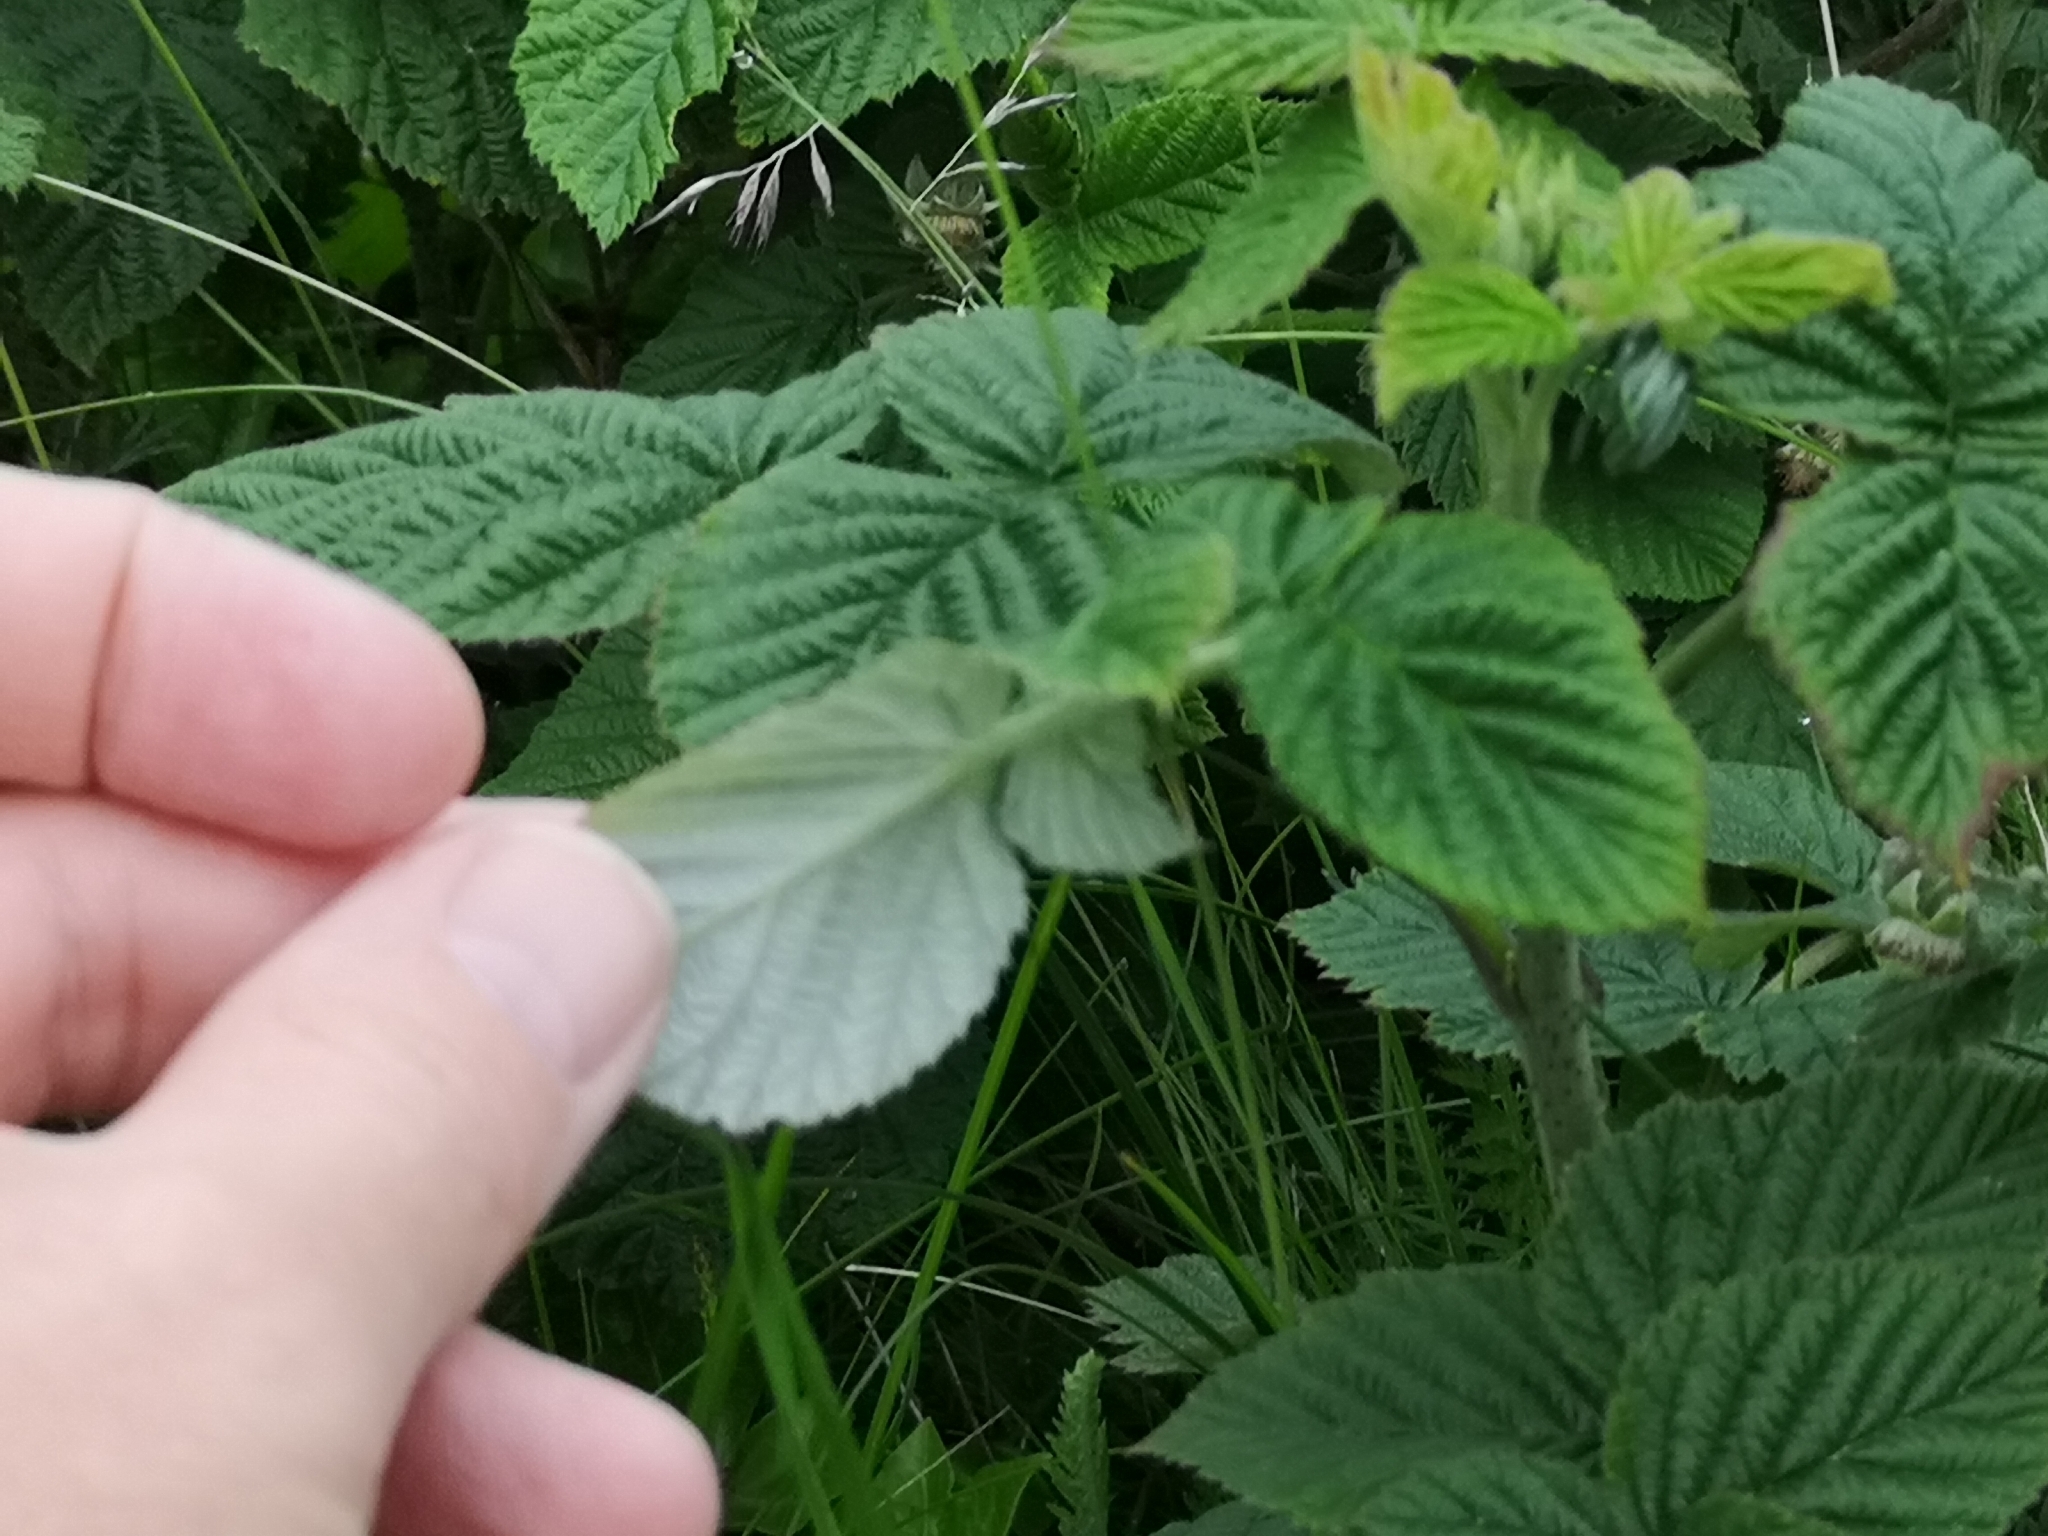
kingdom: Plantae
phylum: Tracheophyta
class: Magnoliopsida
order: Rosales
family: Rosaceae
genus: Rubus
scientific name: Rubus idaeus
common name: Raspberry
